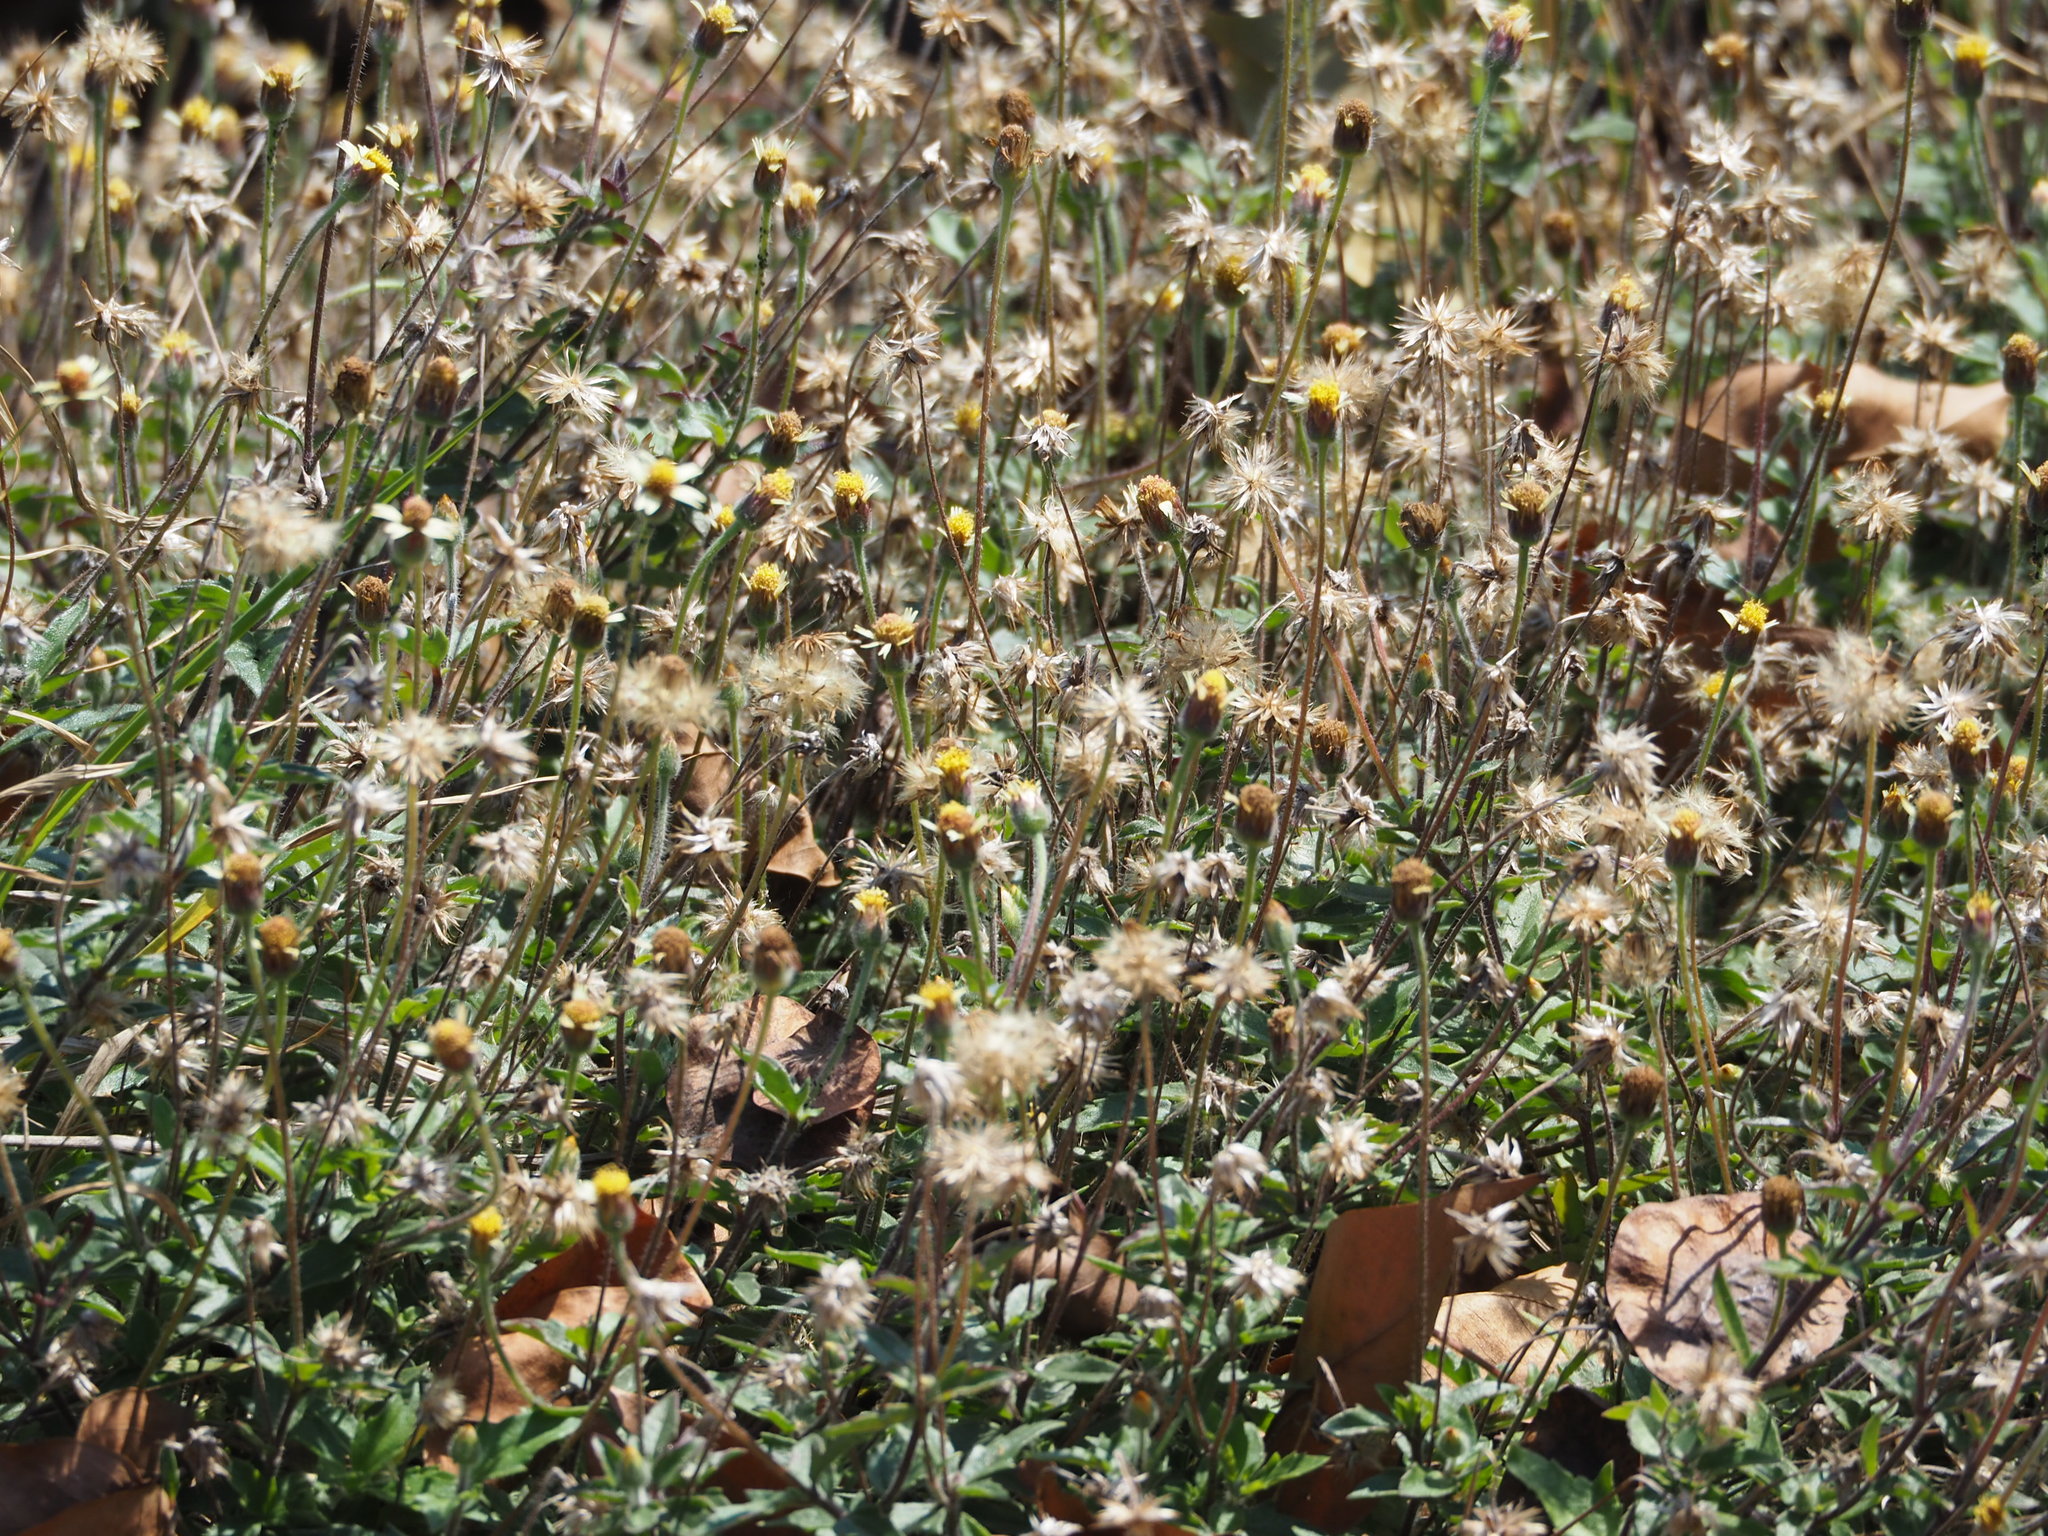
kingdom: Plantae
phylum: Tracheophyta
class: Magnoliopsida
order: Asterales
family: Asteraceae
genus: Tridax
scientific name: Tridax procumbens
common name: Coatbuttons
